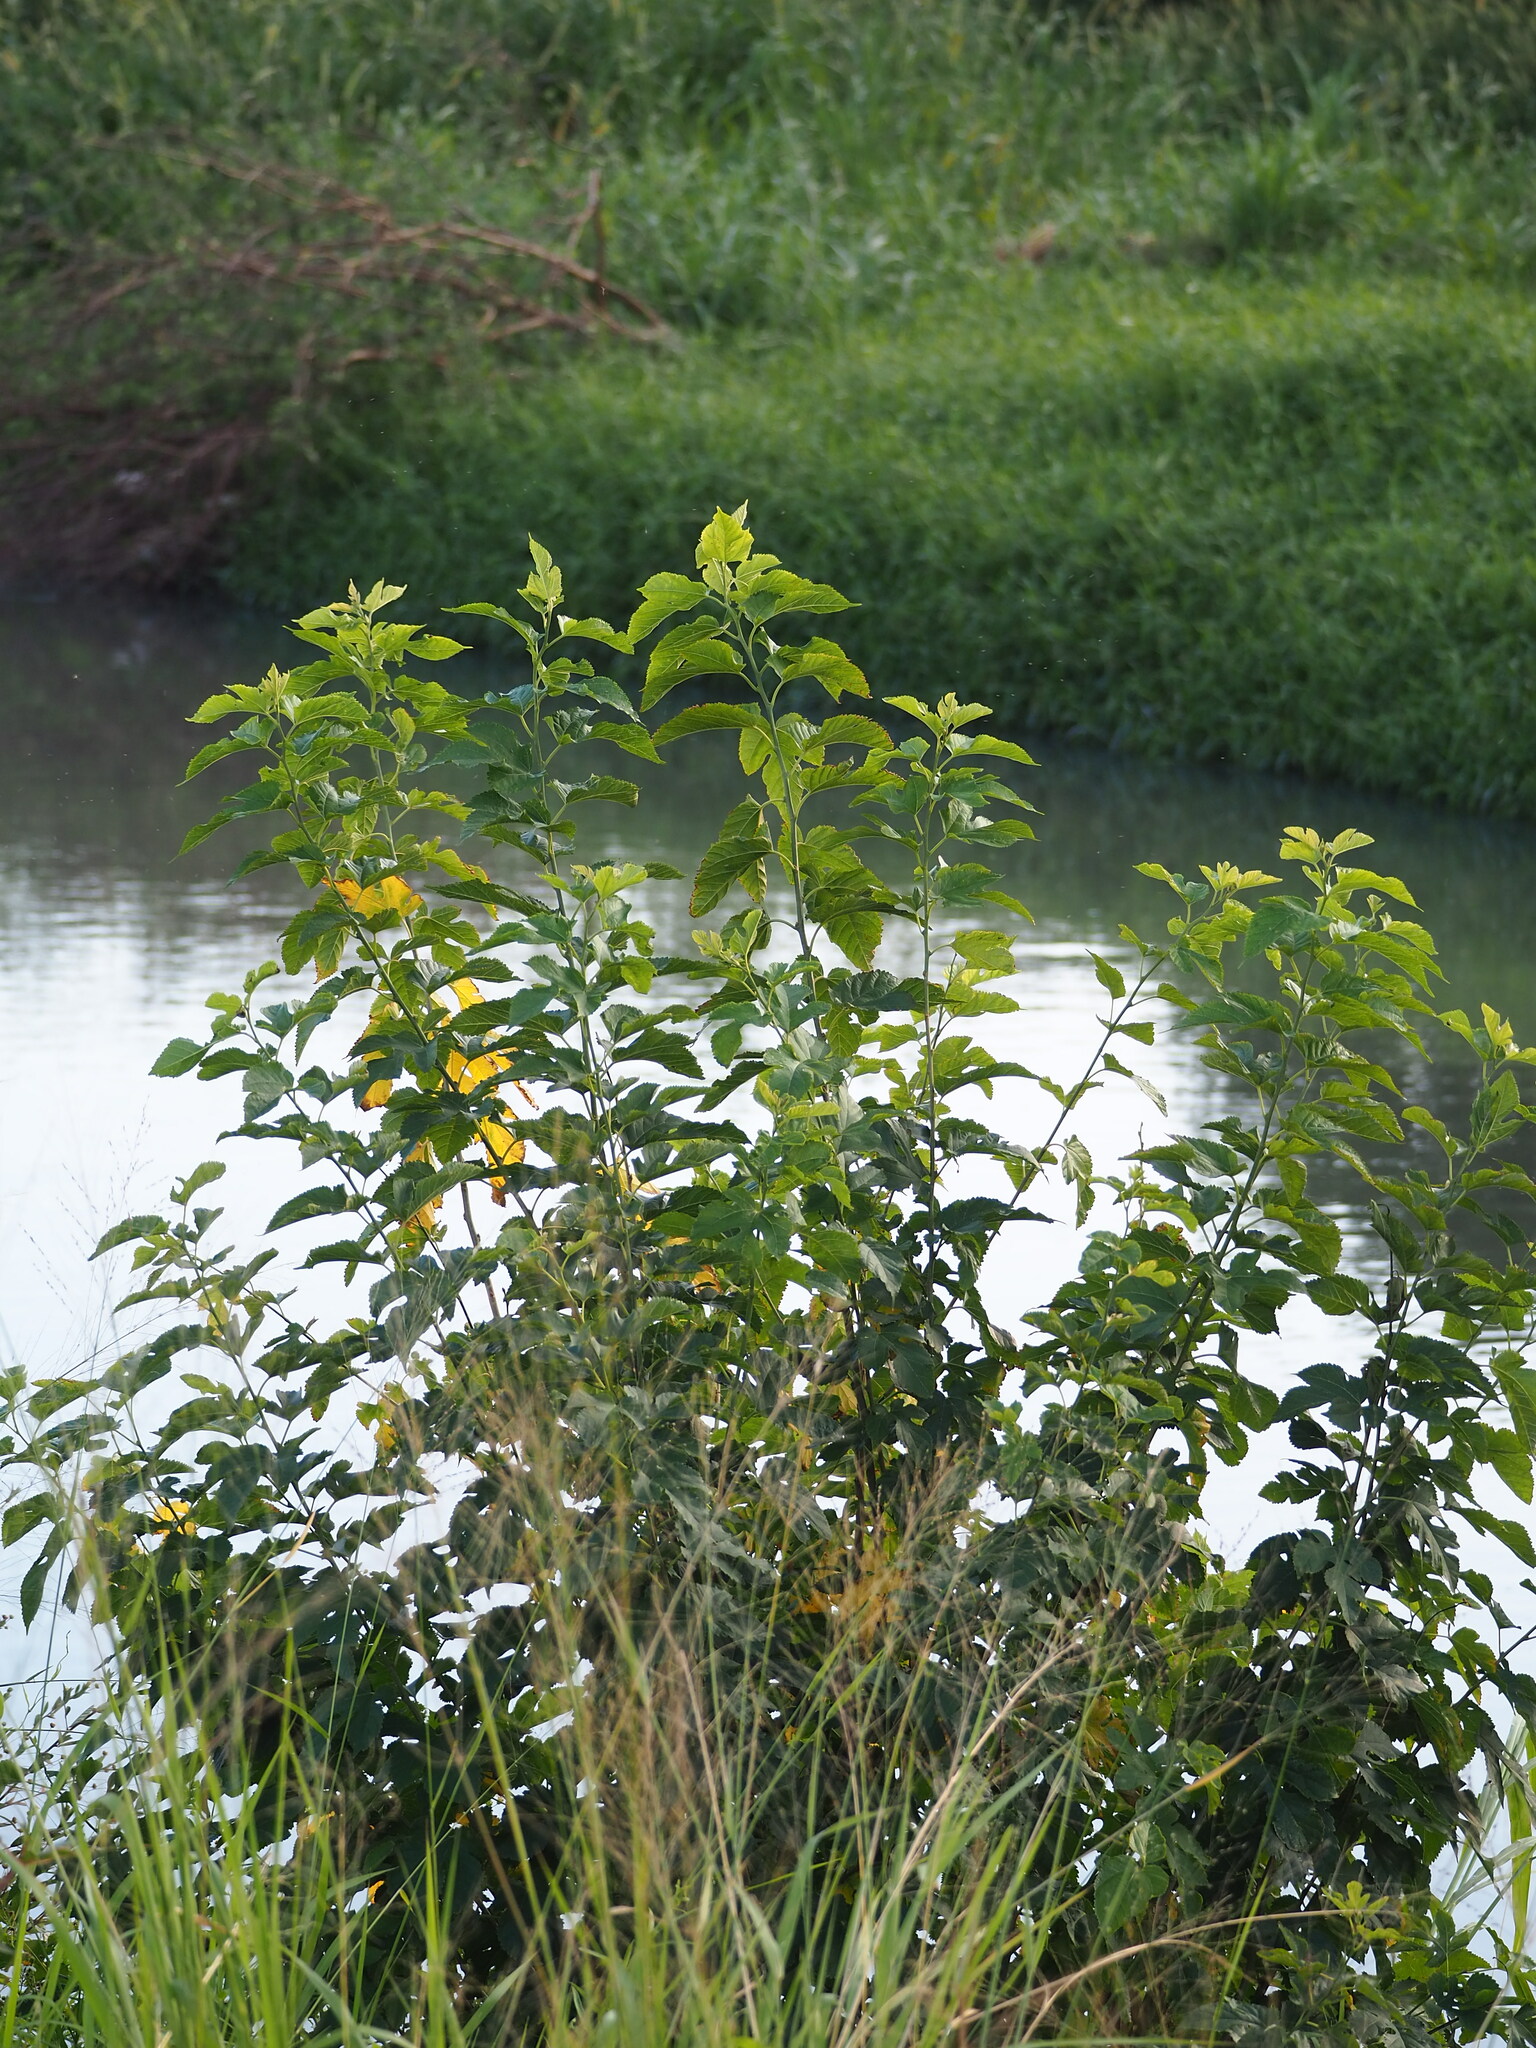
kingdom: Plantae
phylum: Tracheophyta
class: Magnoliopsida
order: Rosales
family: Moraceae
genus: Morus
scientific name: Morus indica
